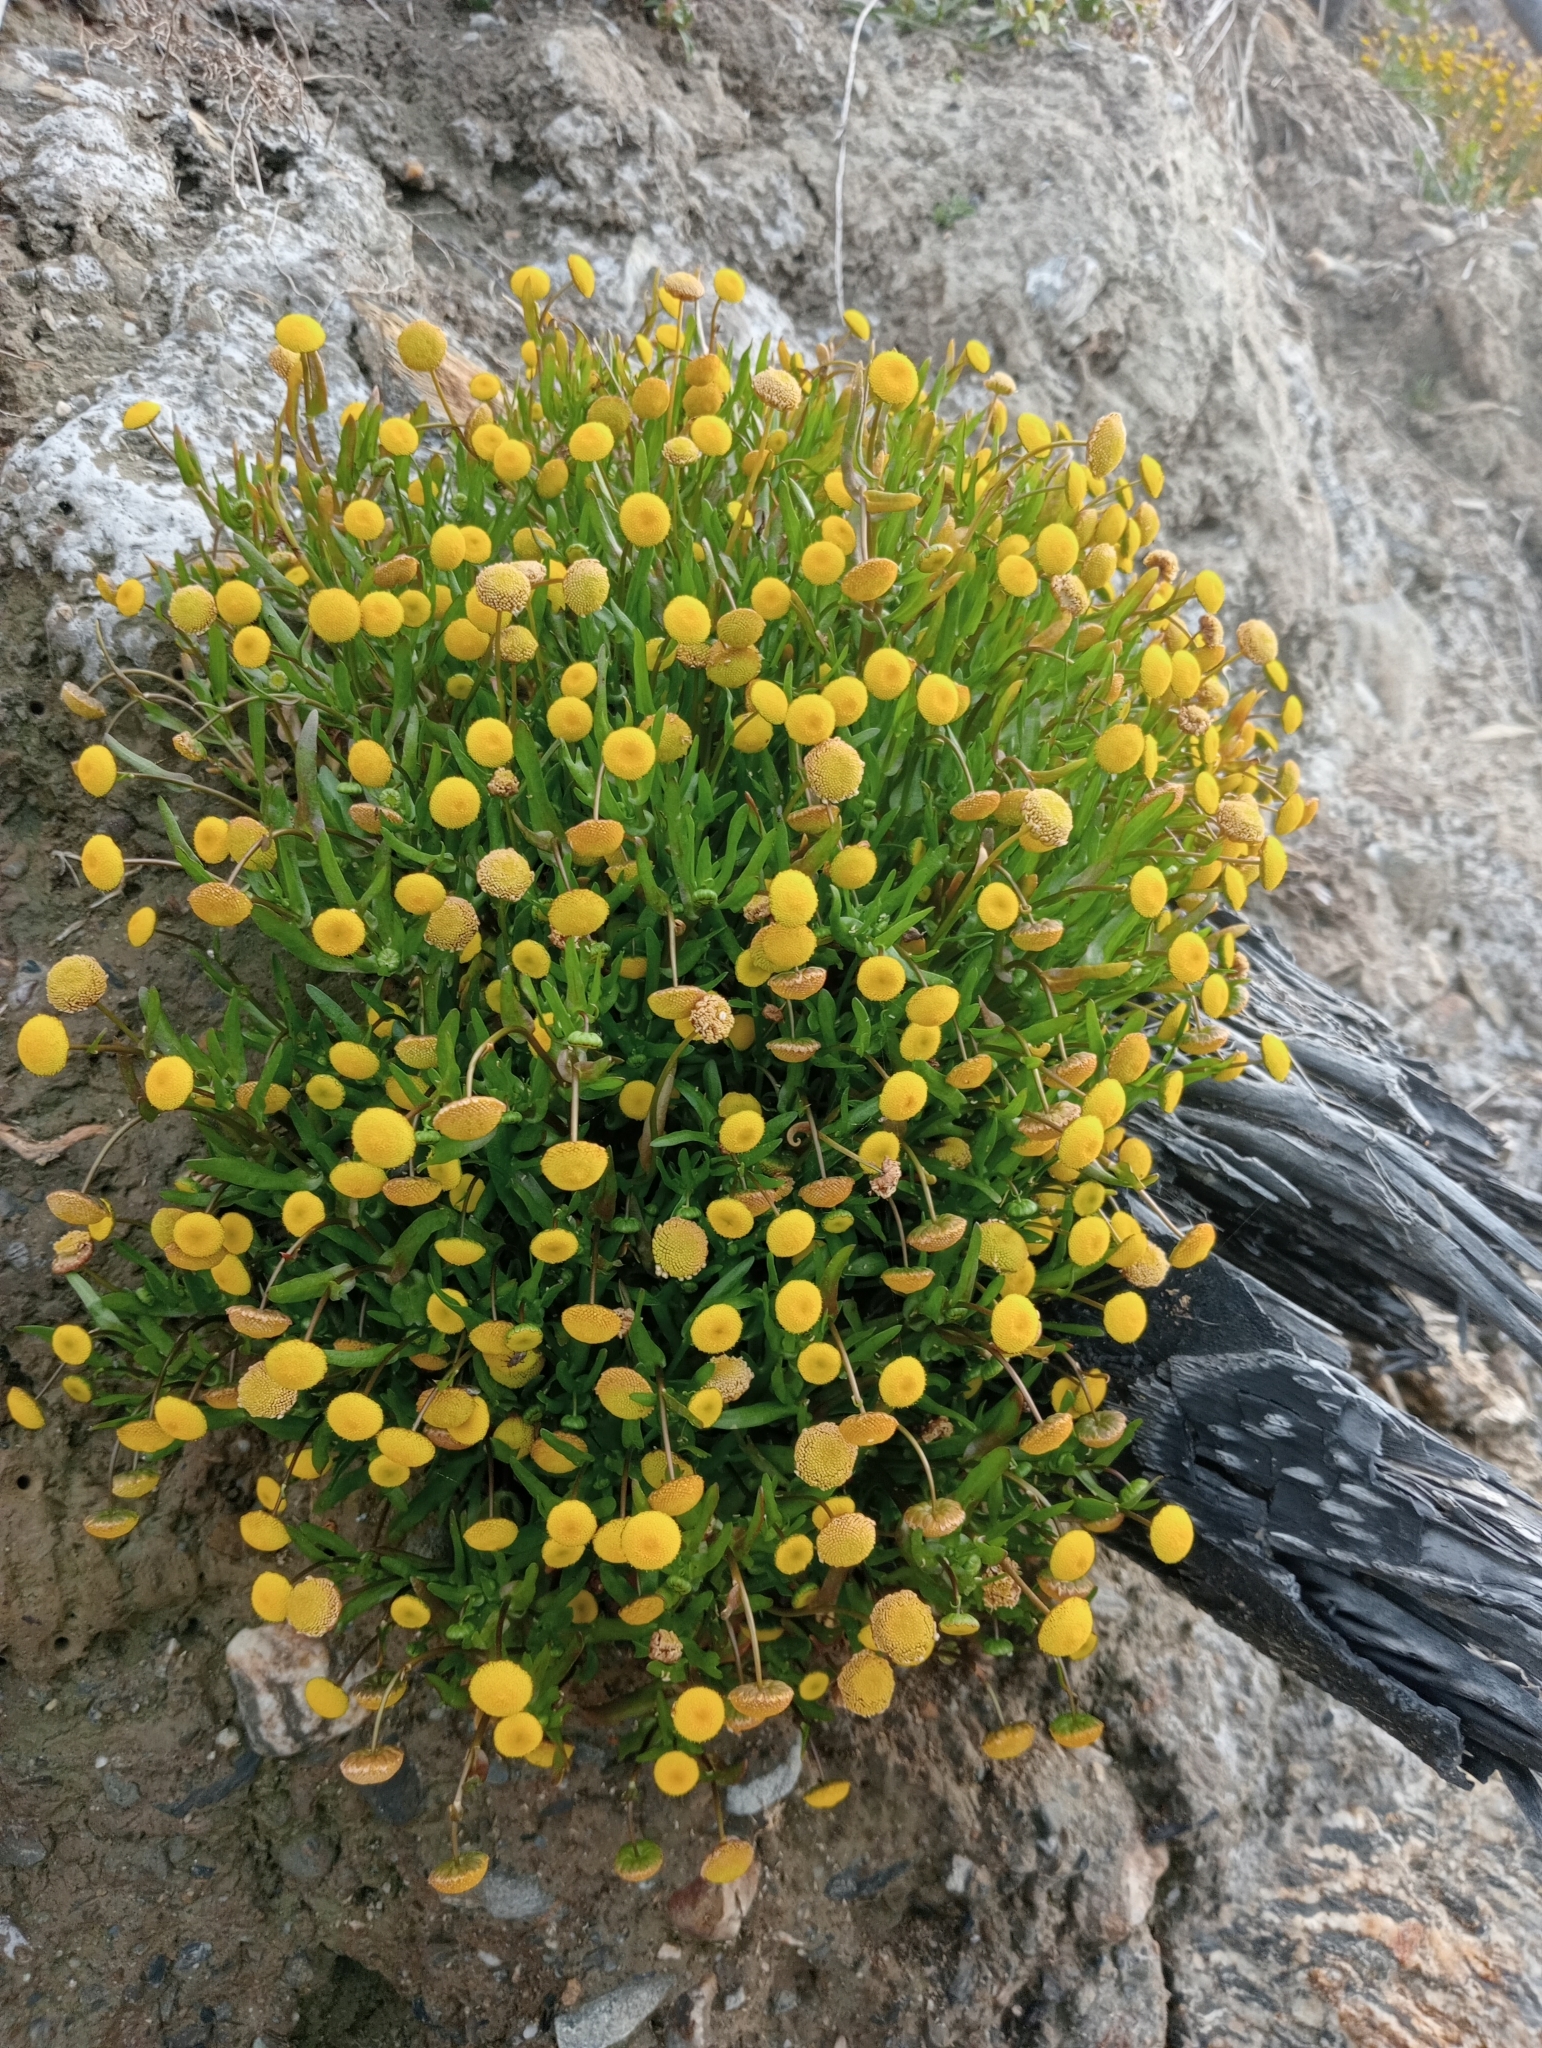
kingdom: Plantae
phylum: Tracheophyta
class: Magnoliopsida
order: Asterales
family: Asteraceae
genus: Cotula
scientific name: Cotula coronopifolia
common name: Buttonweed
